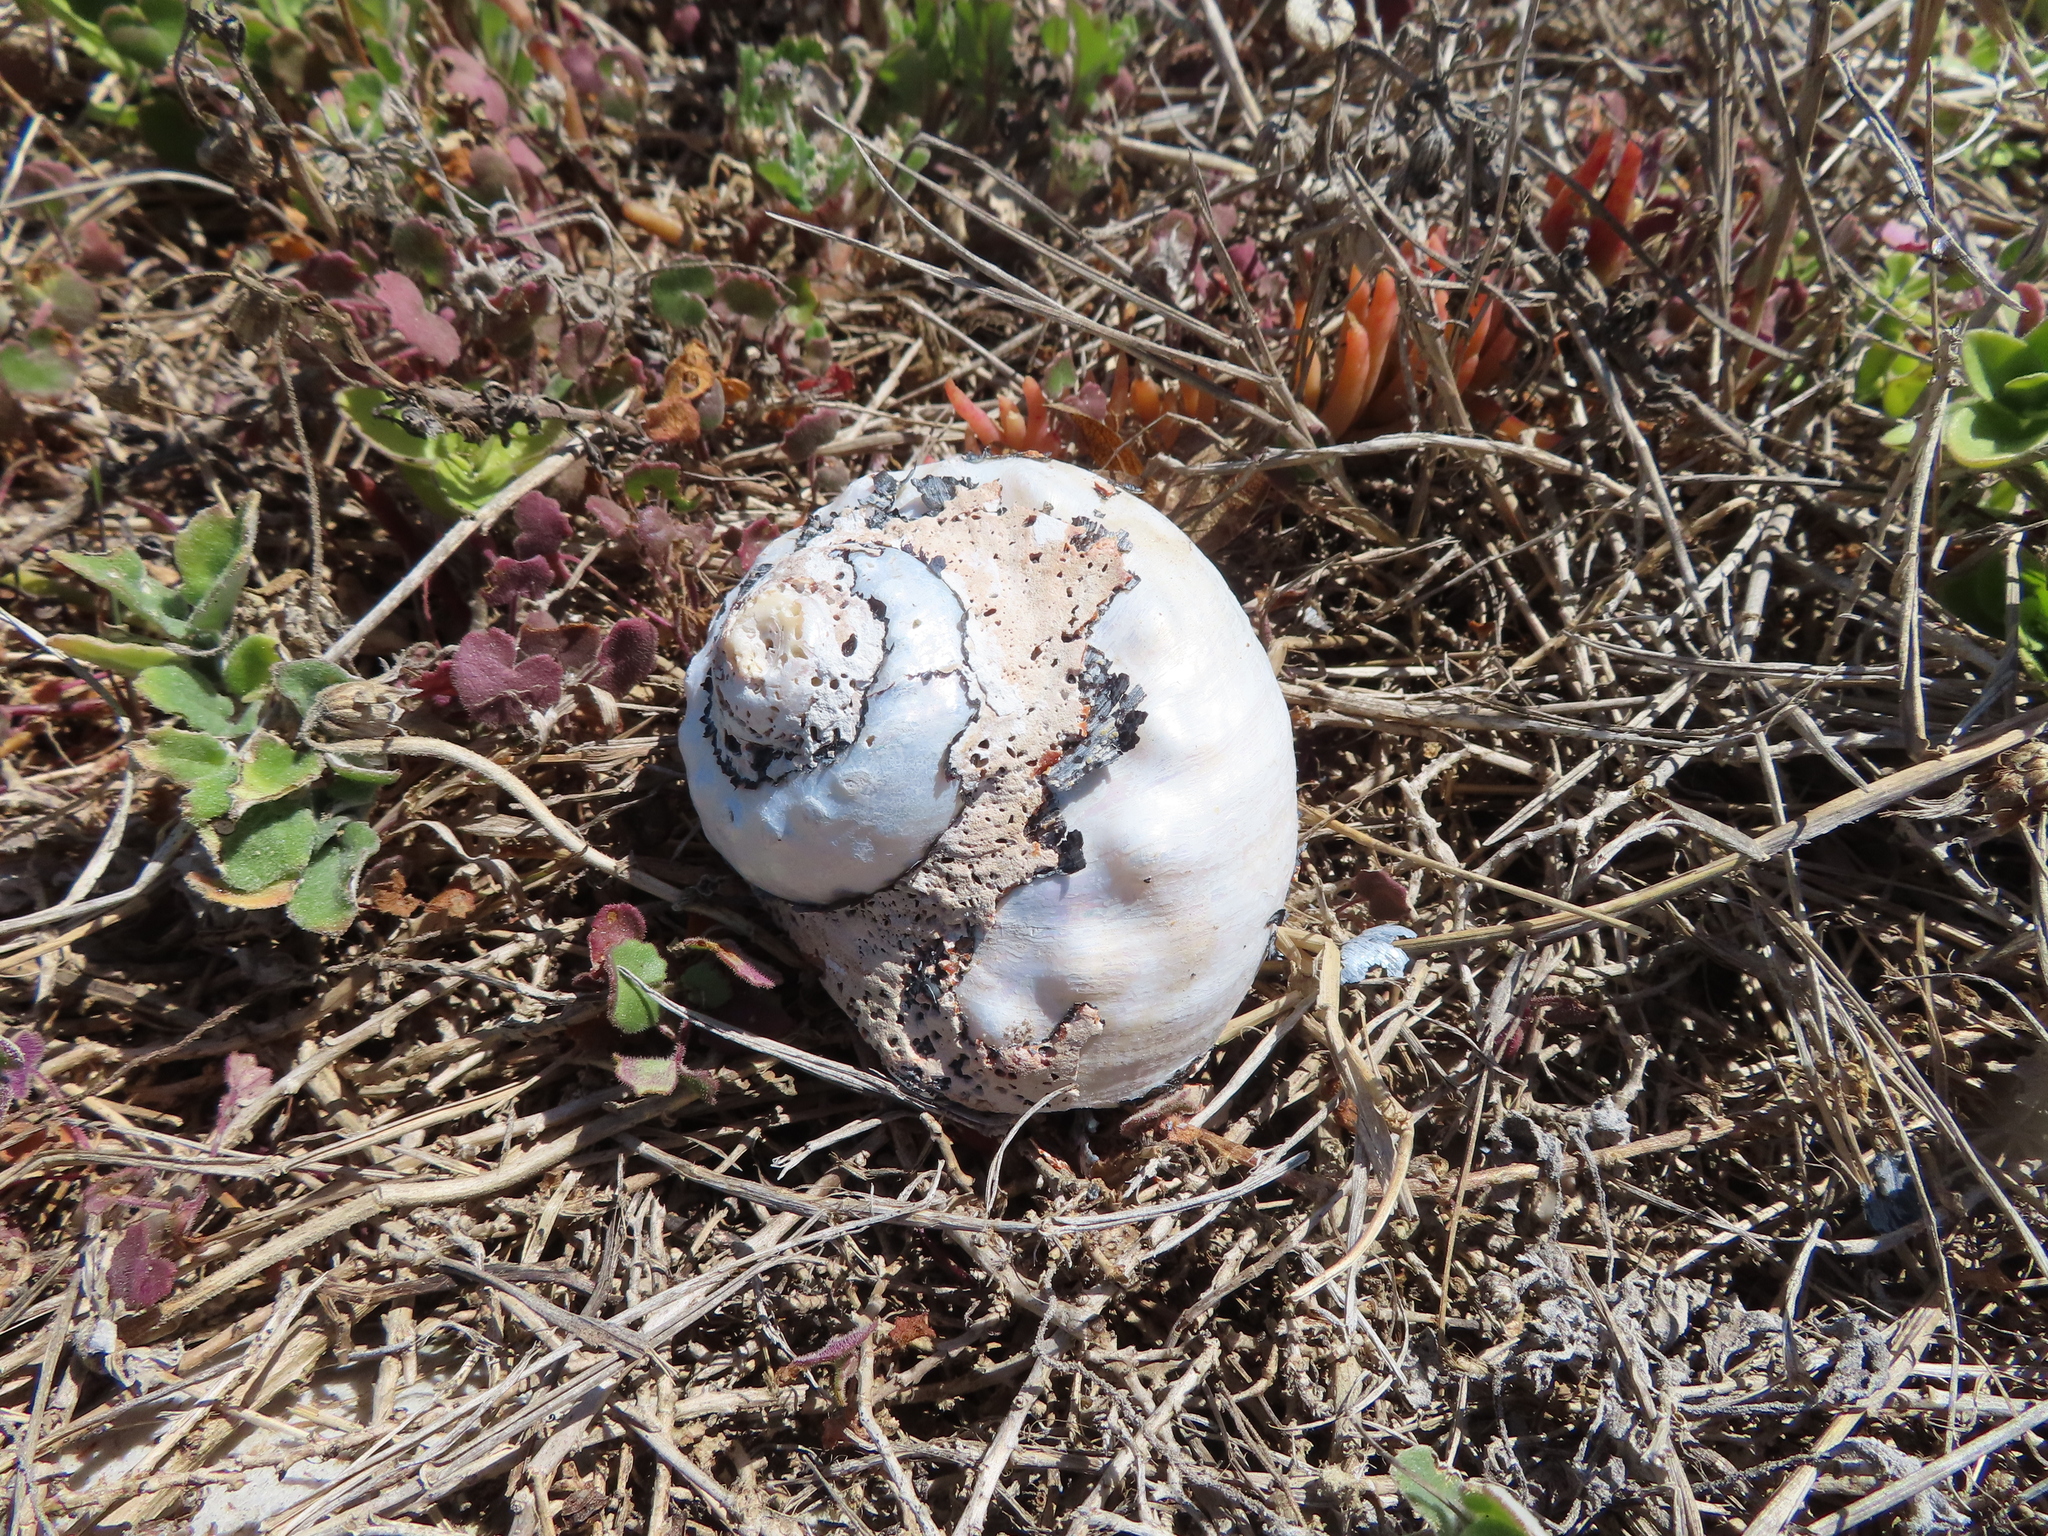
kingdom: Animalia
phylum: Mollusca
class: Gastropoda
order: Trochida
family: Turbinidae
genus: Turbo
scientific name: Turbo sarmaticus
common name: South african turban
